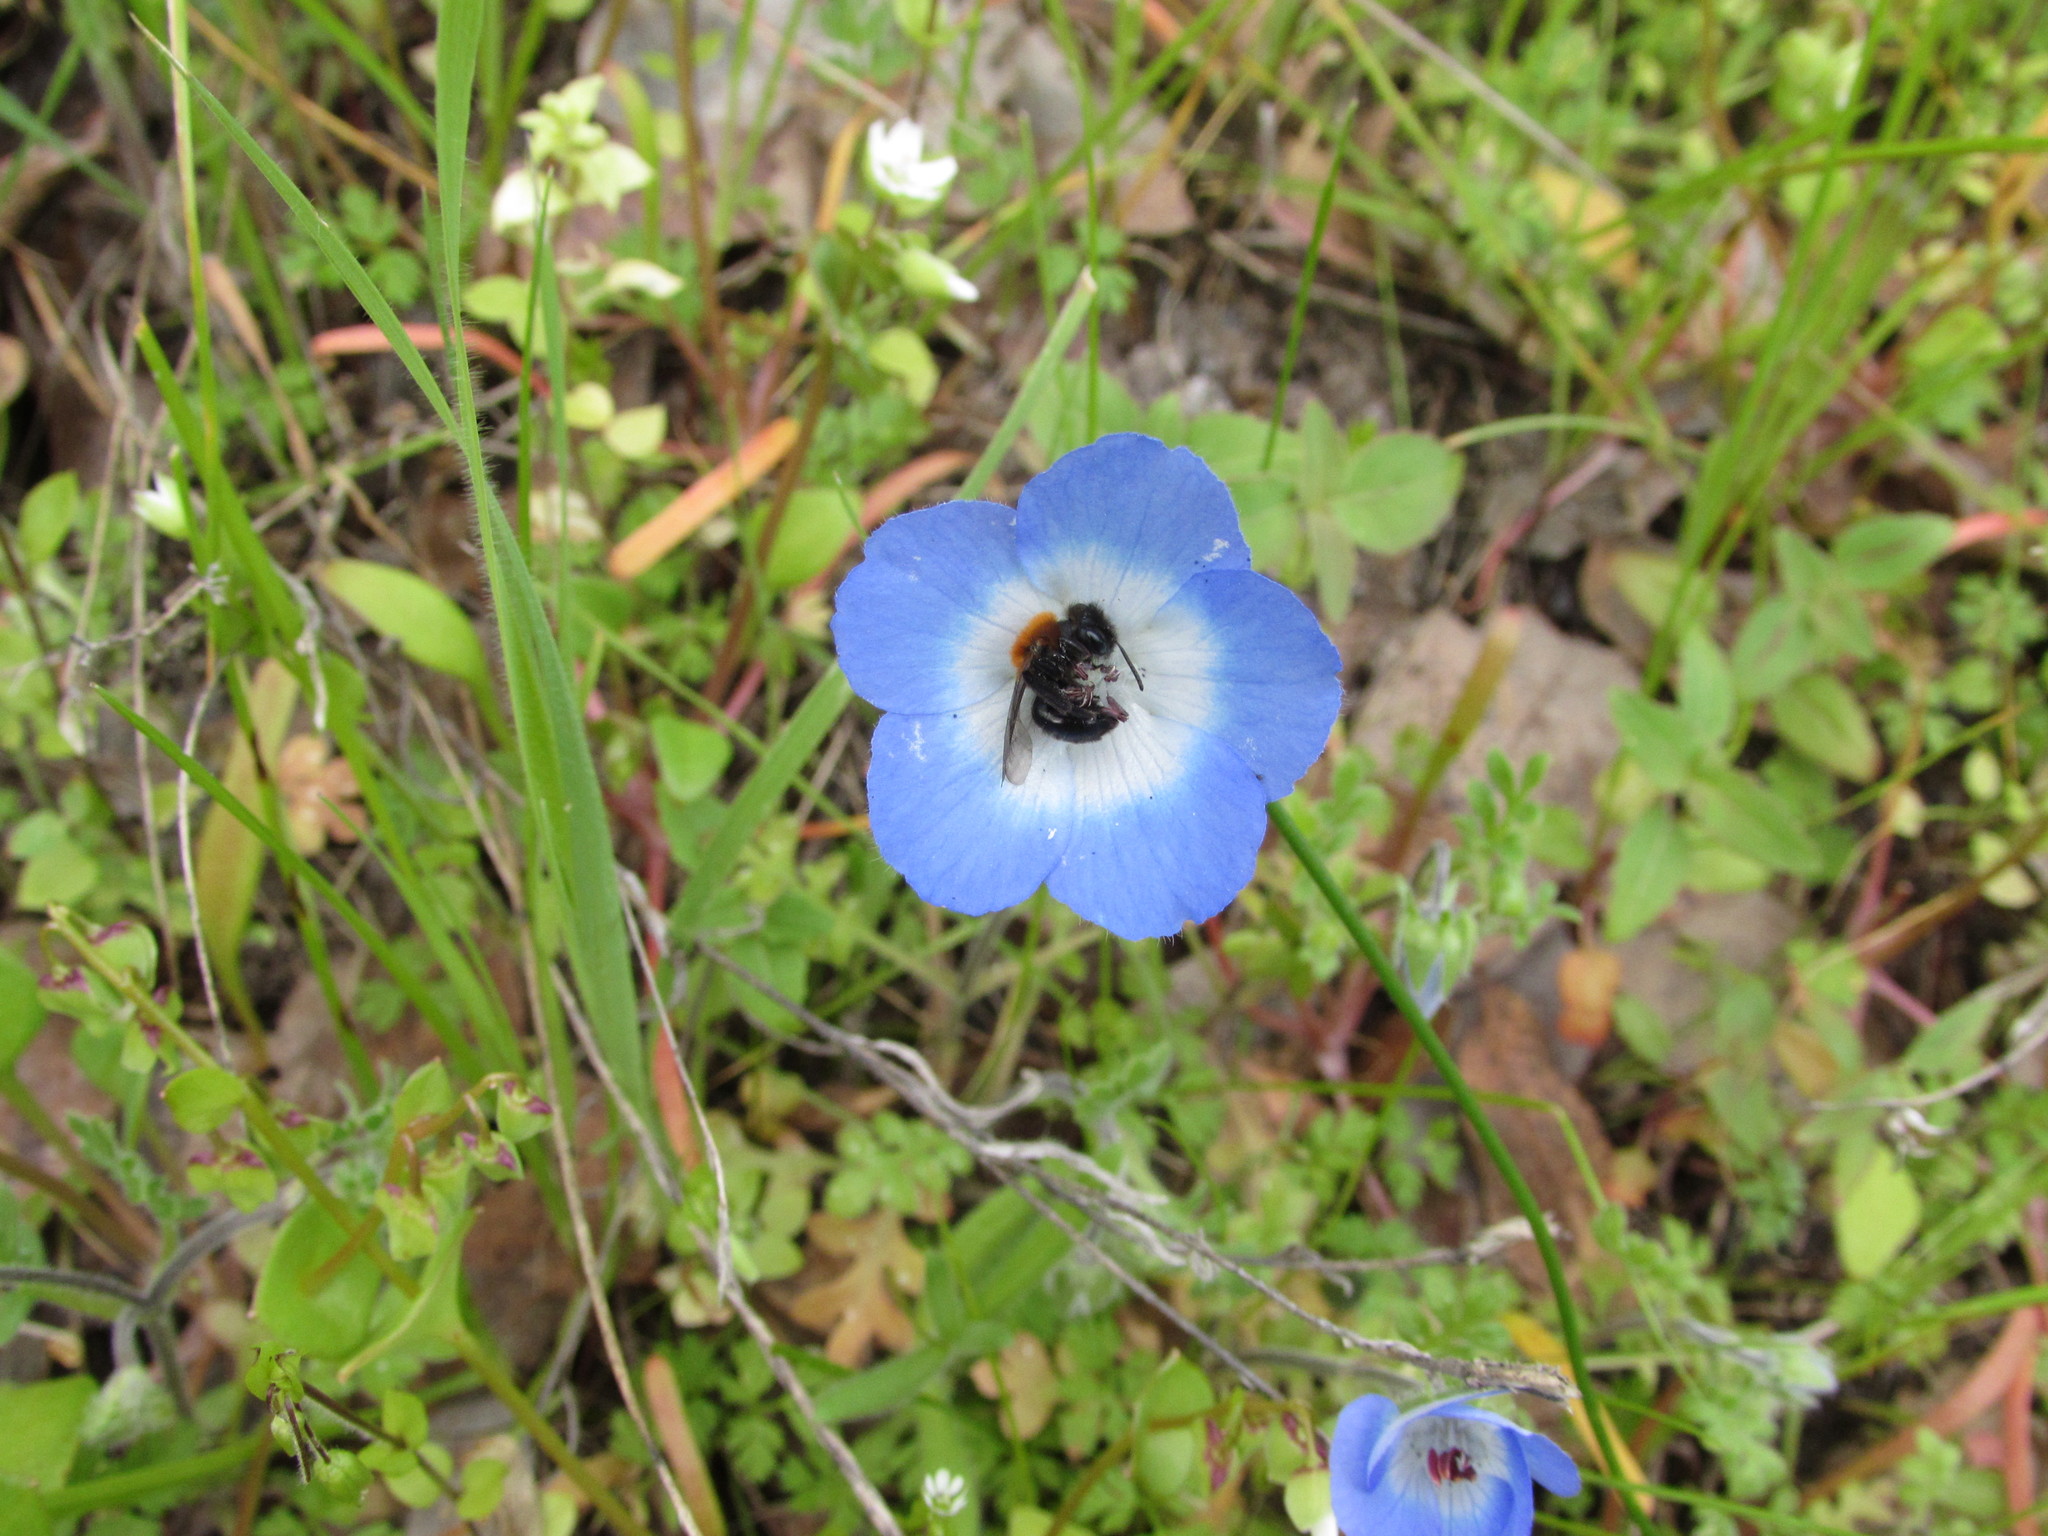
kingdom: Animalia
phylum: Arthropoda
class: Insecta
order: Hymenoptera
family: Andrenidae
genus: Andrena
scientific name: Andrena nigripes
